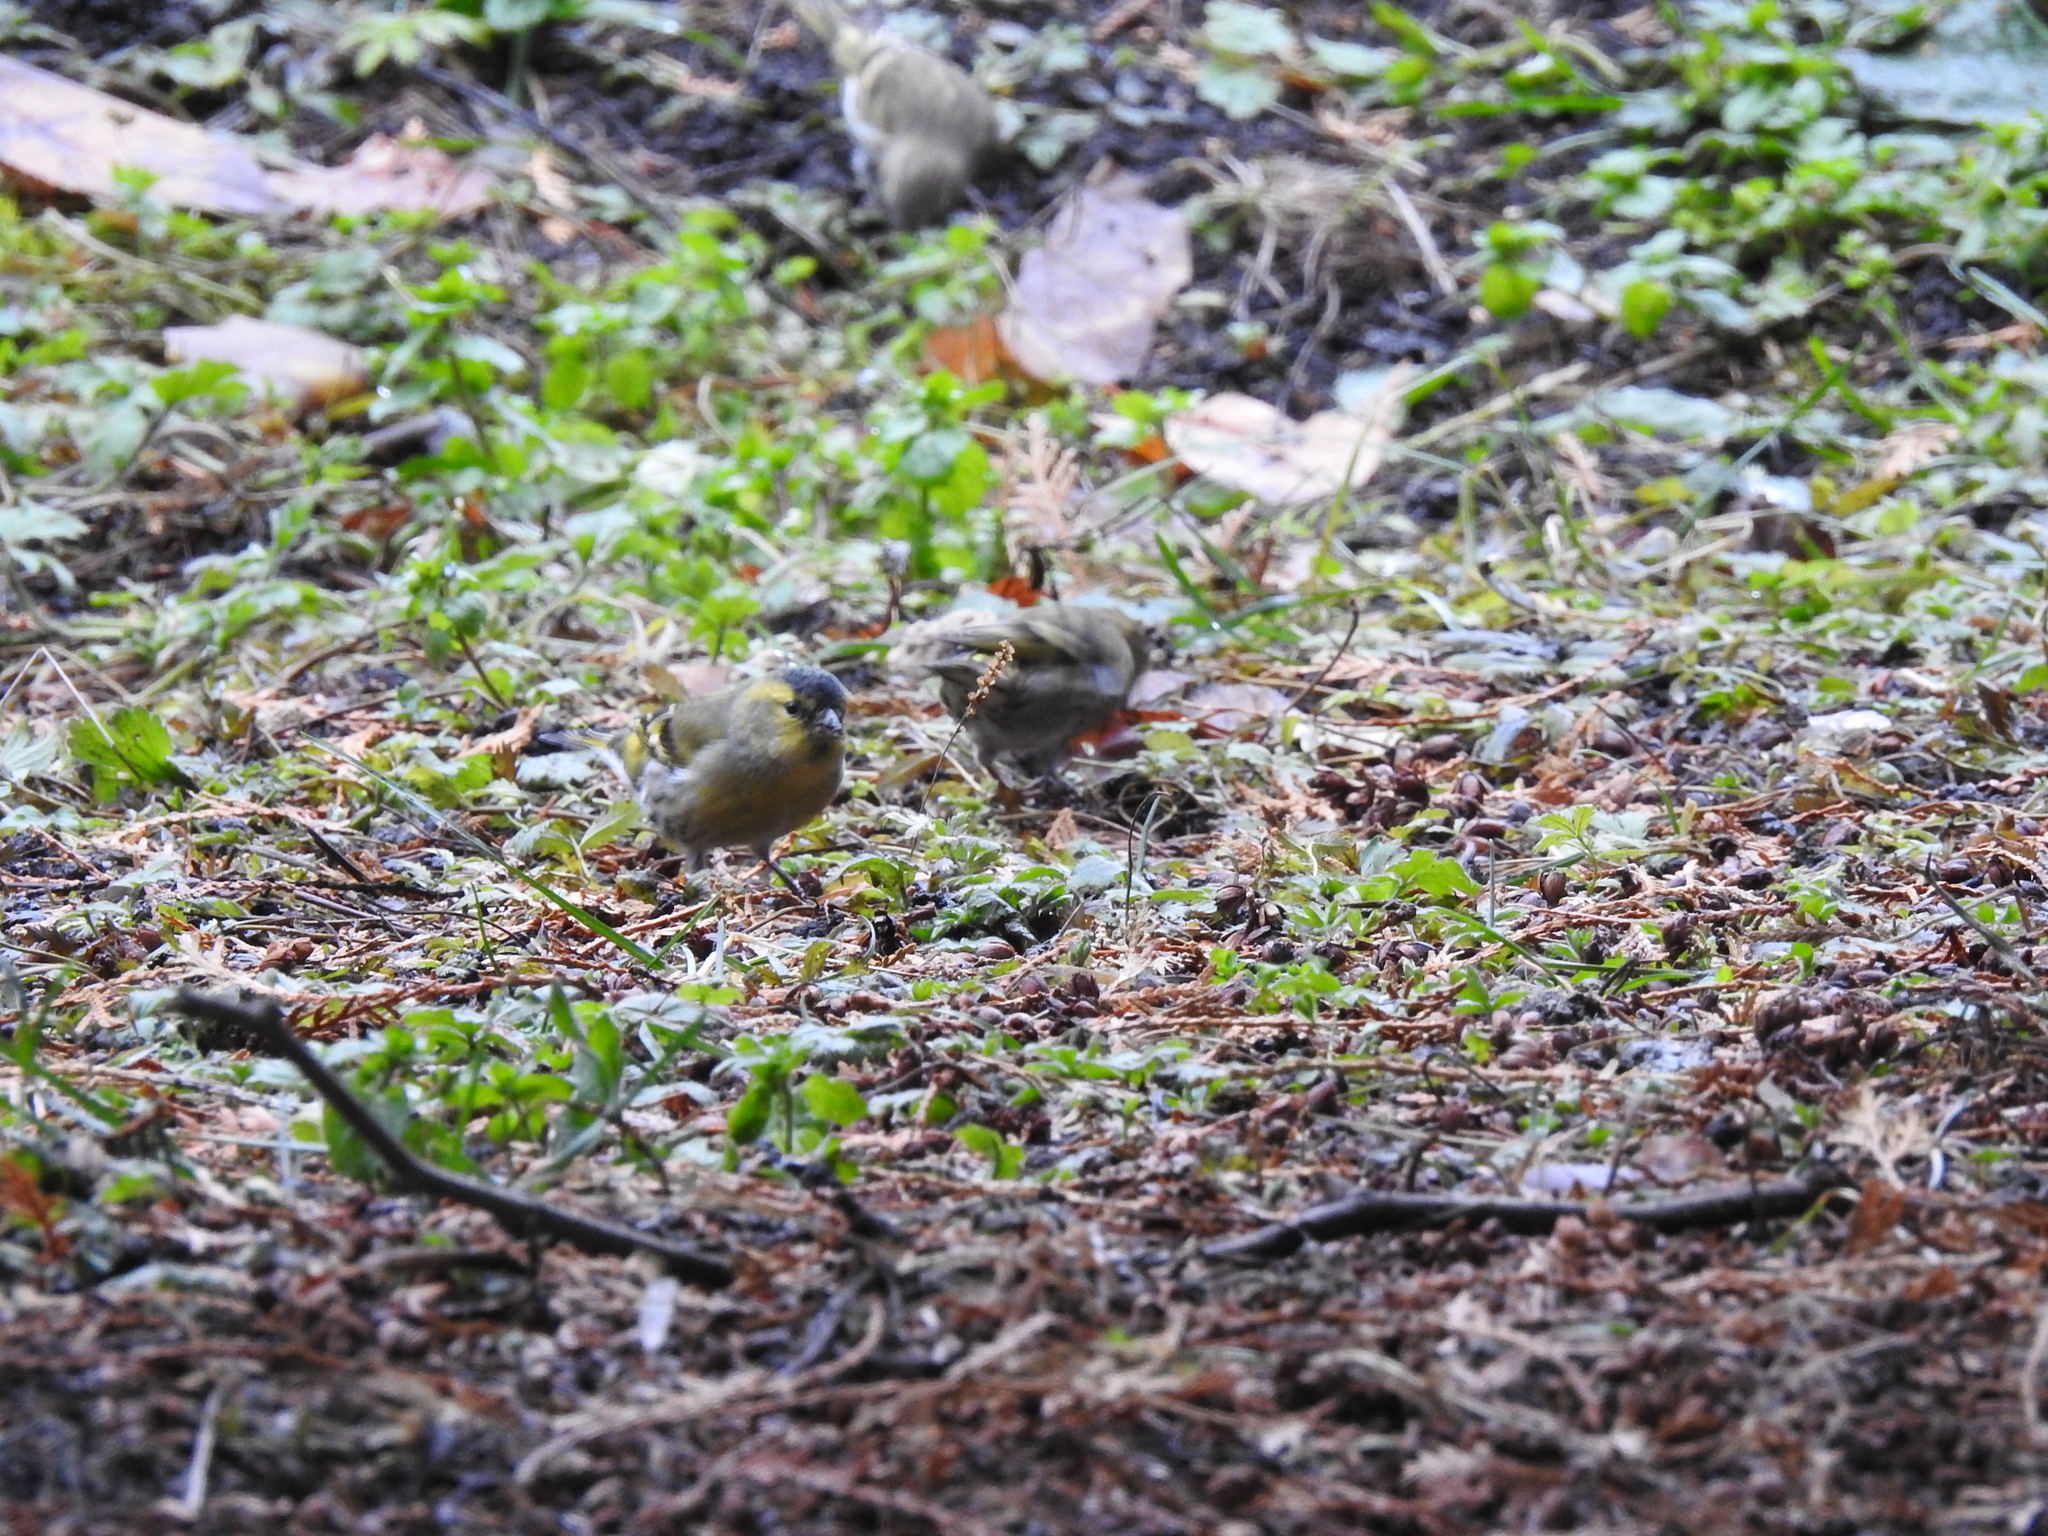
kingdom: Animalia
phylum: Chordata
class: Aves
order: Passeriformes
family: Fringillidae
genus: Spinus
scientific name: Spinus spinus
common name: Eurasian siskin
